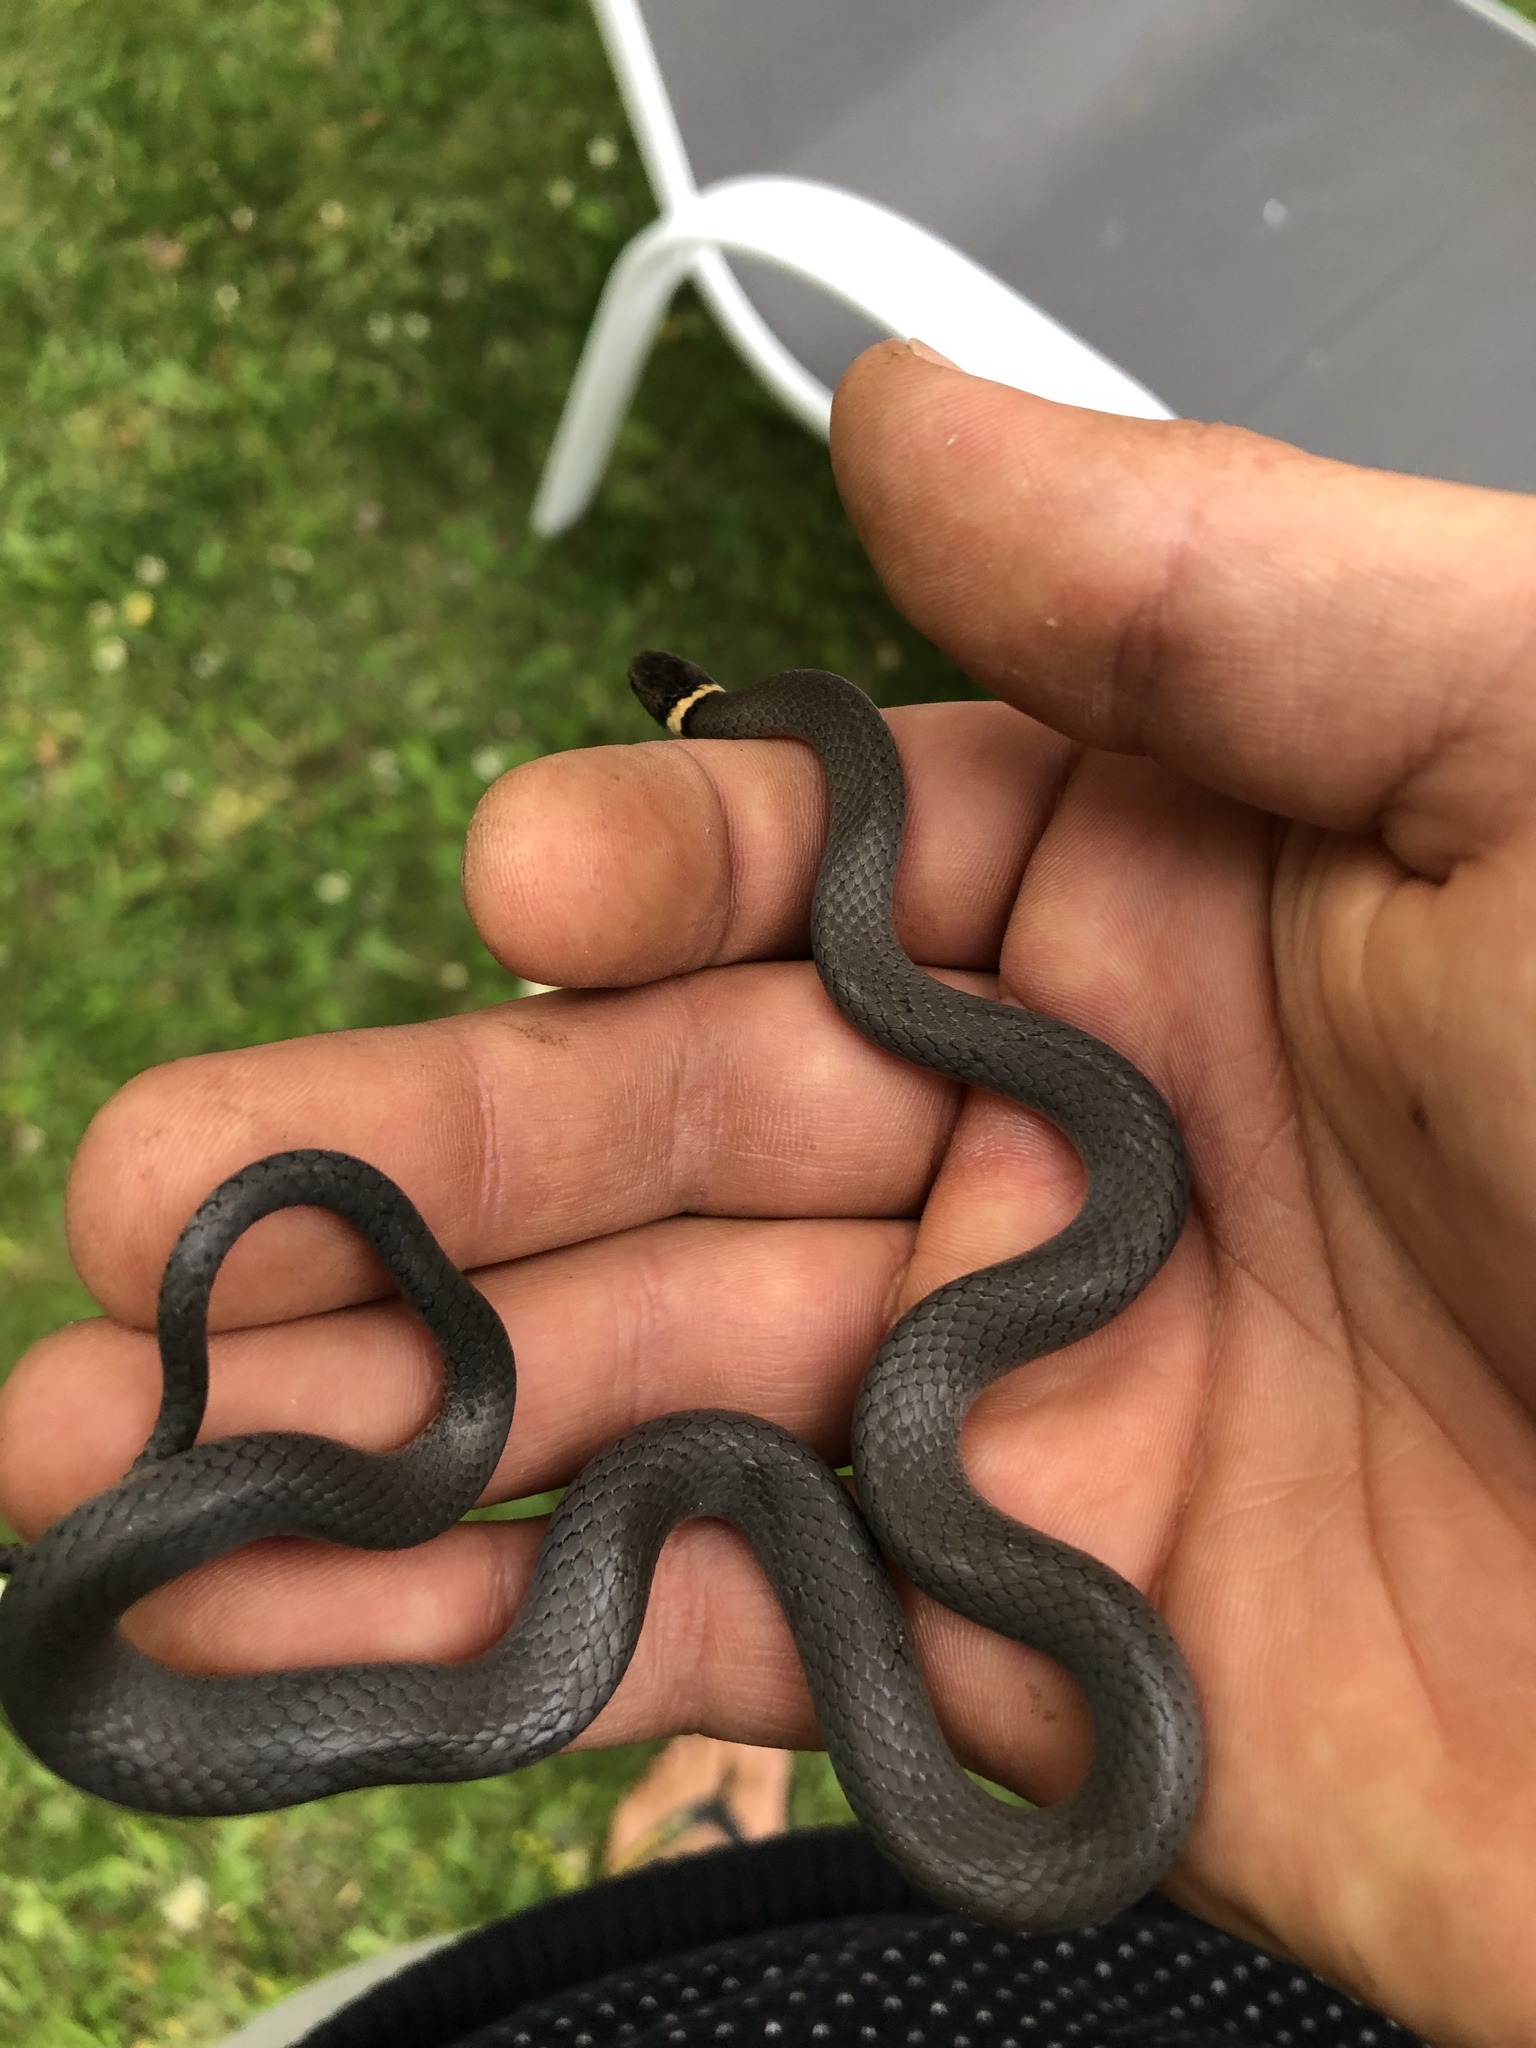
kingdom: Animalia
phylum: Chordata
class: Squamata
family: Colubridae
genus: Diadophis
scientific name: Diadophis punctatus
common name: Ringneck snake
